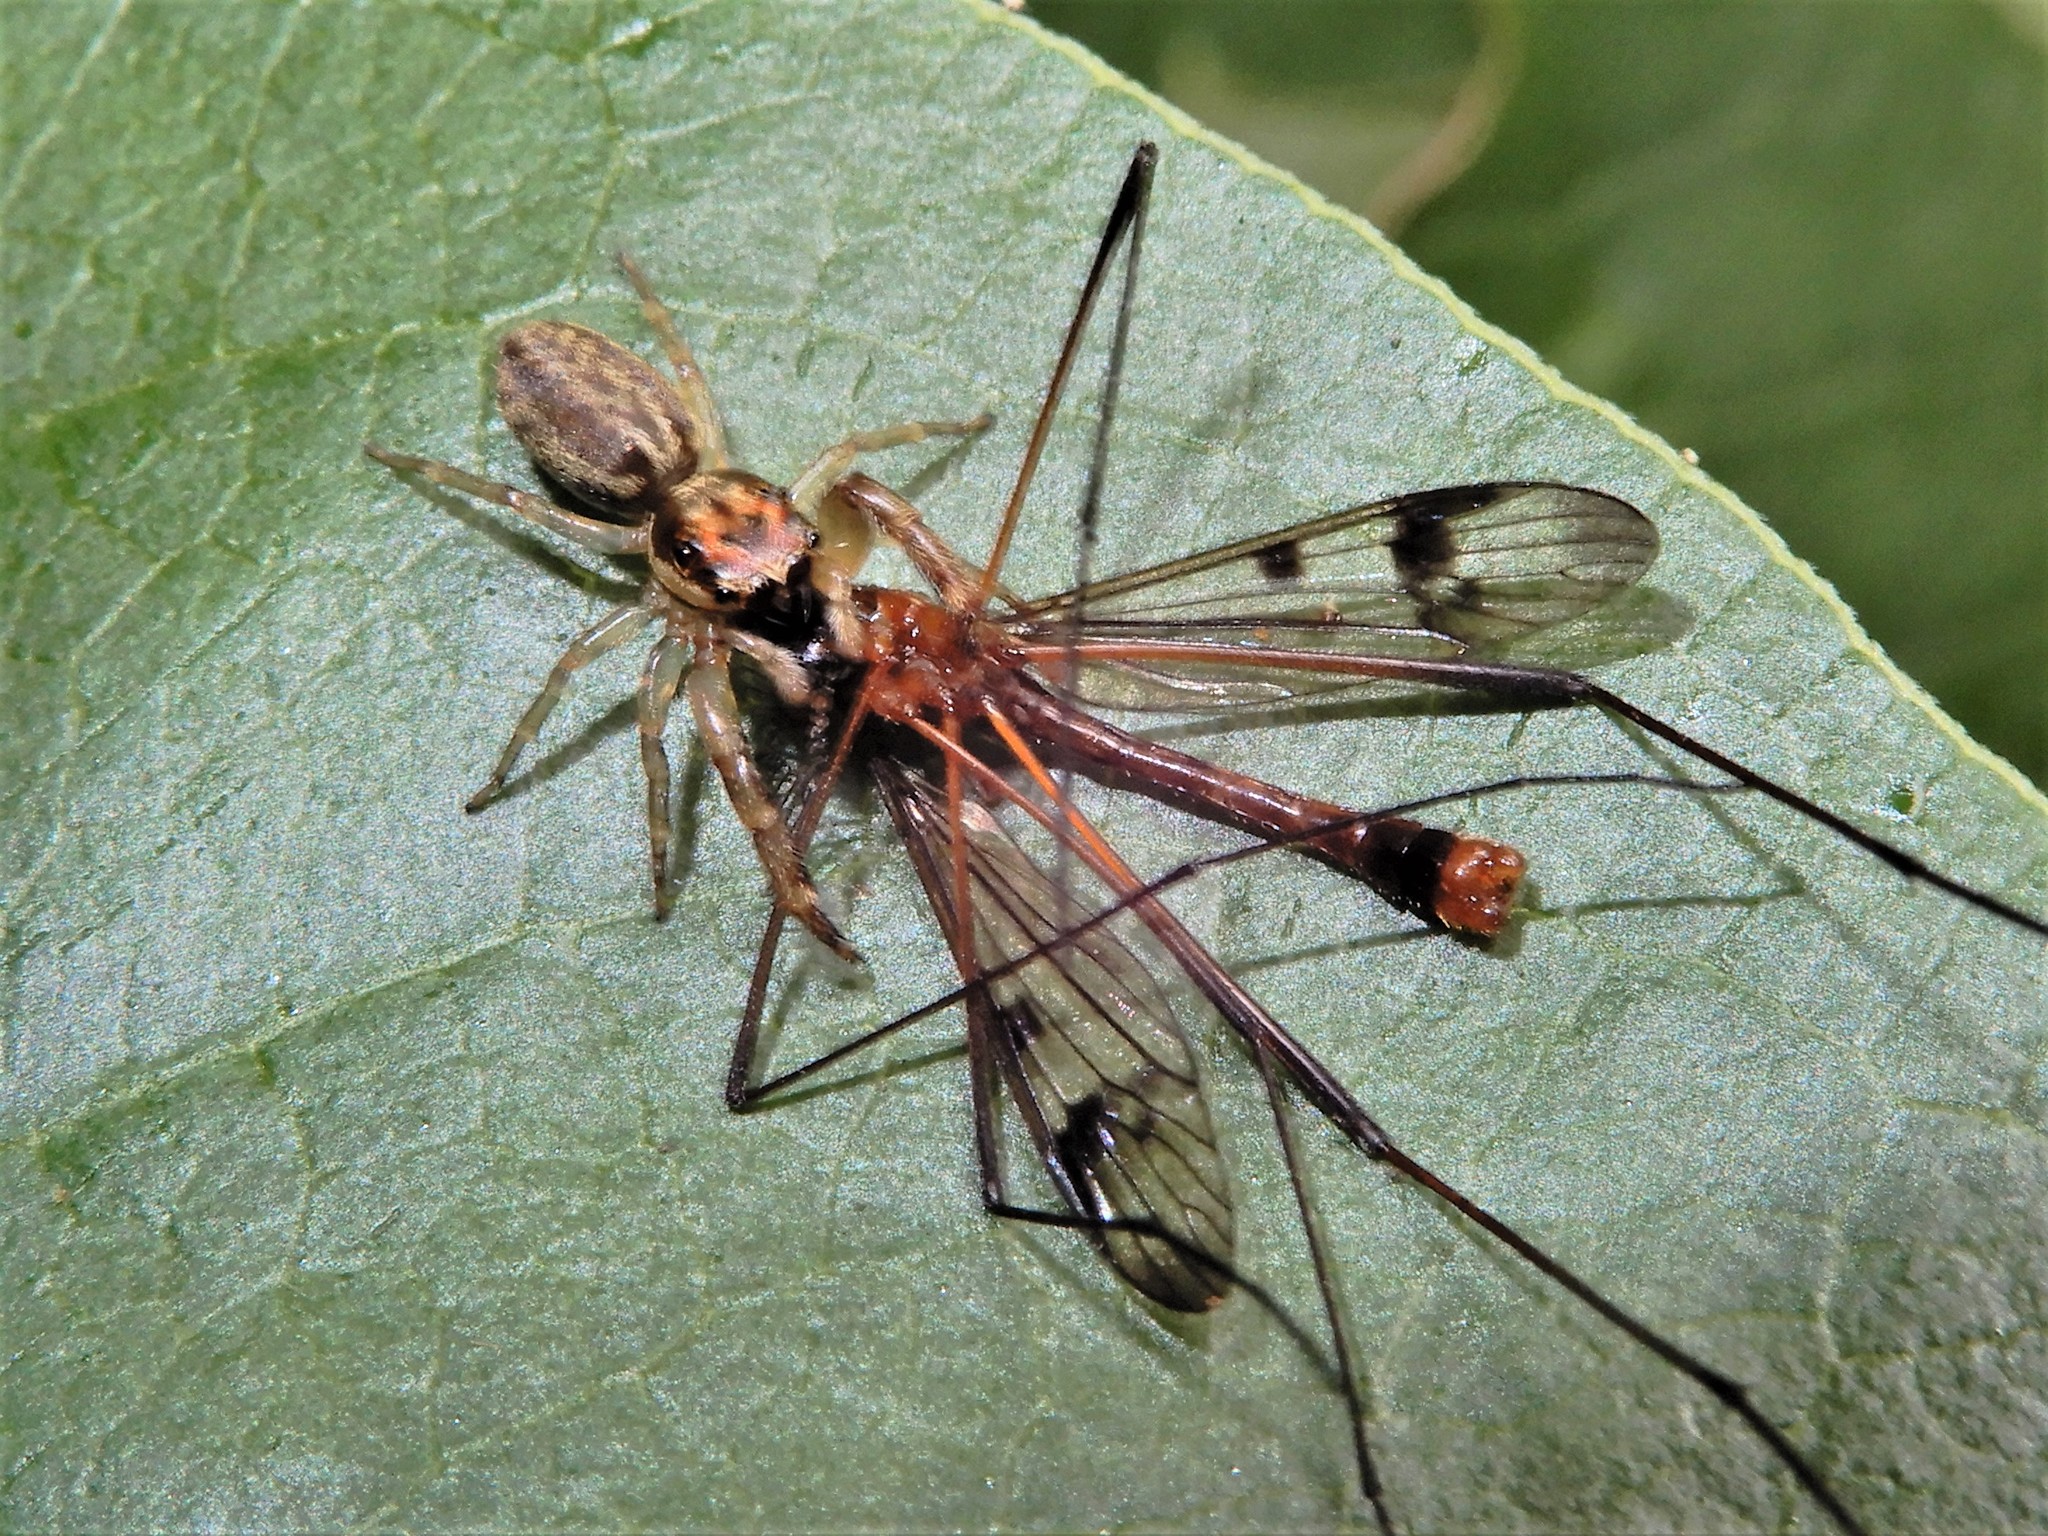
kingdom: Animalia
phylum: Arthropoda
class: Arachnida
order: Araneae
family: Salticidae
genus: Trite
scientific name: Trite mustilina
